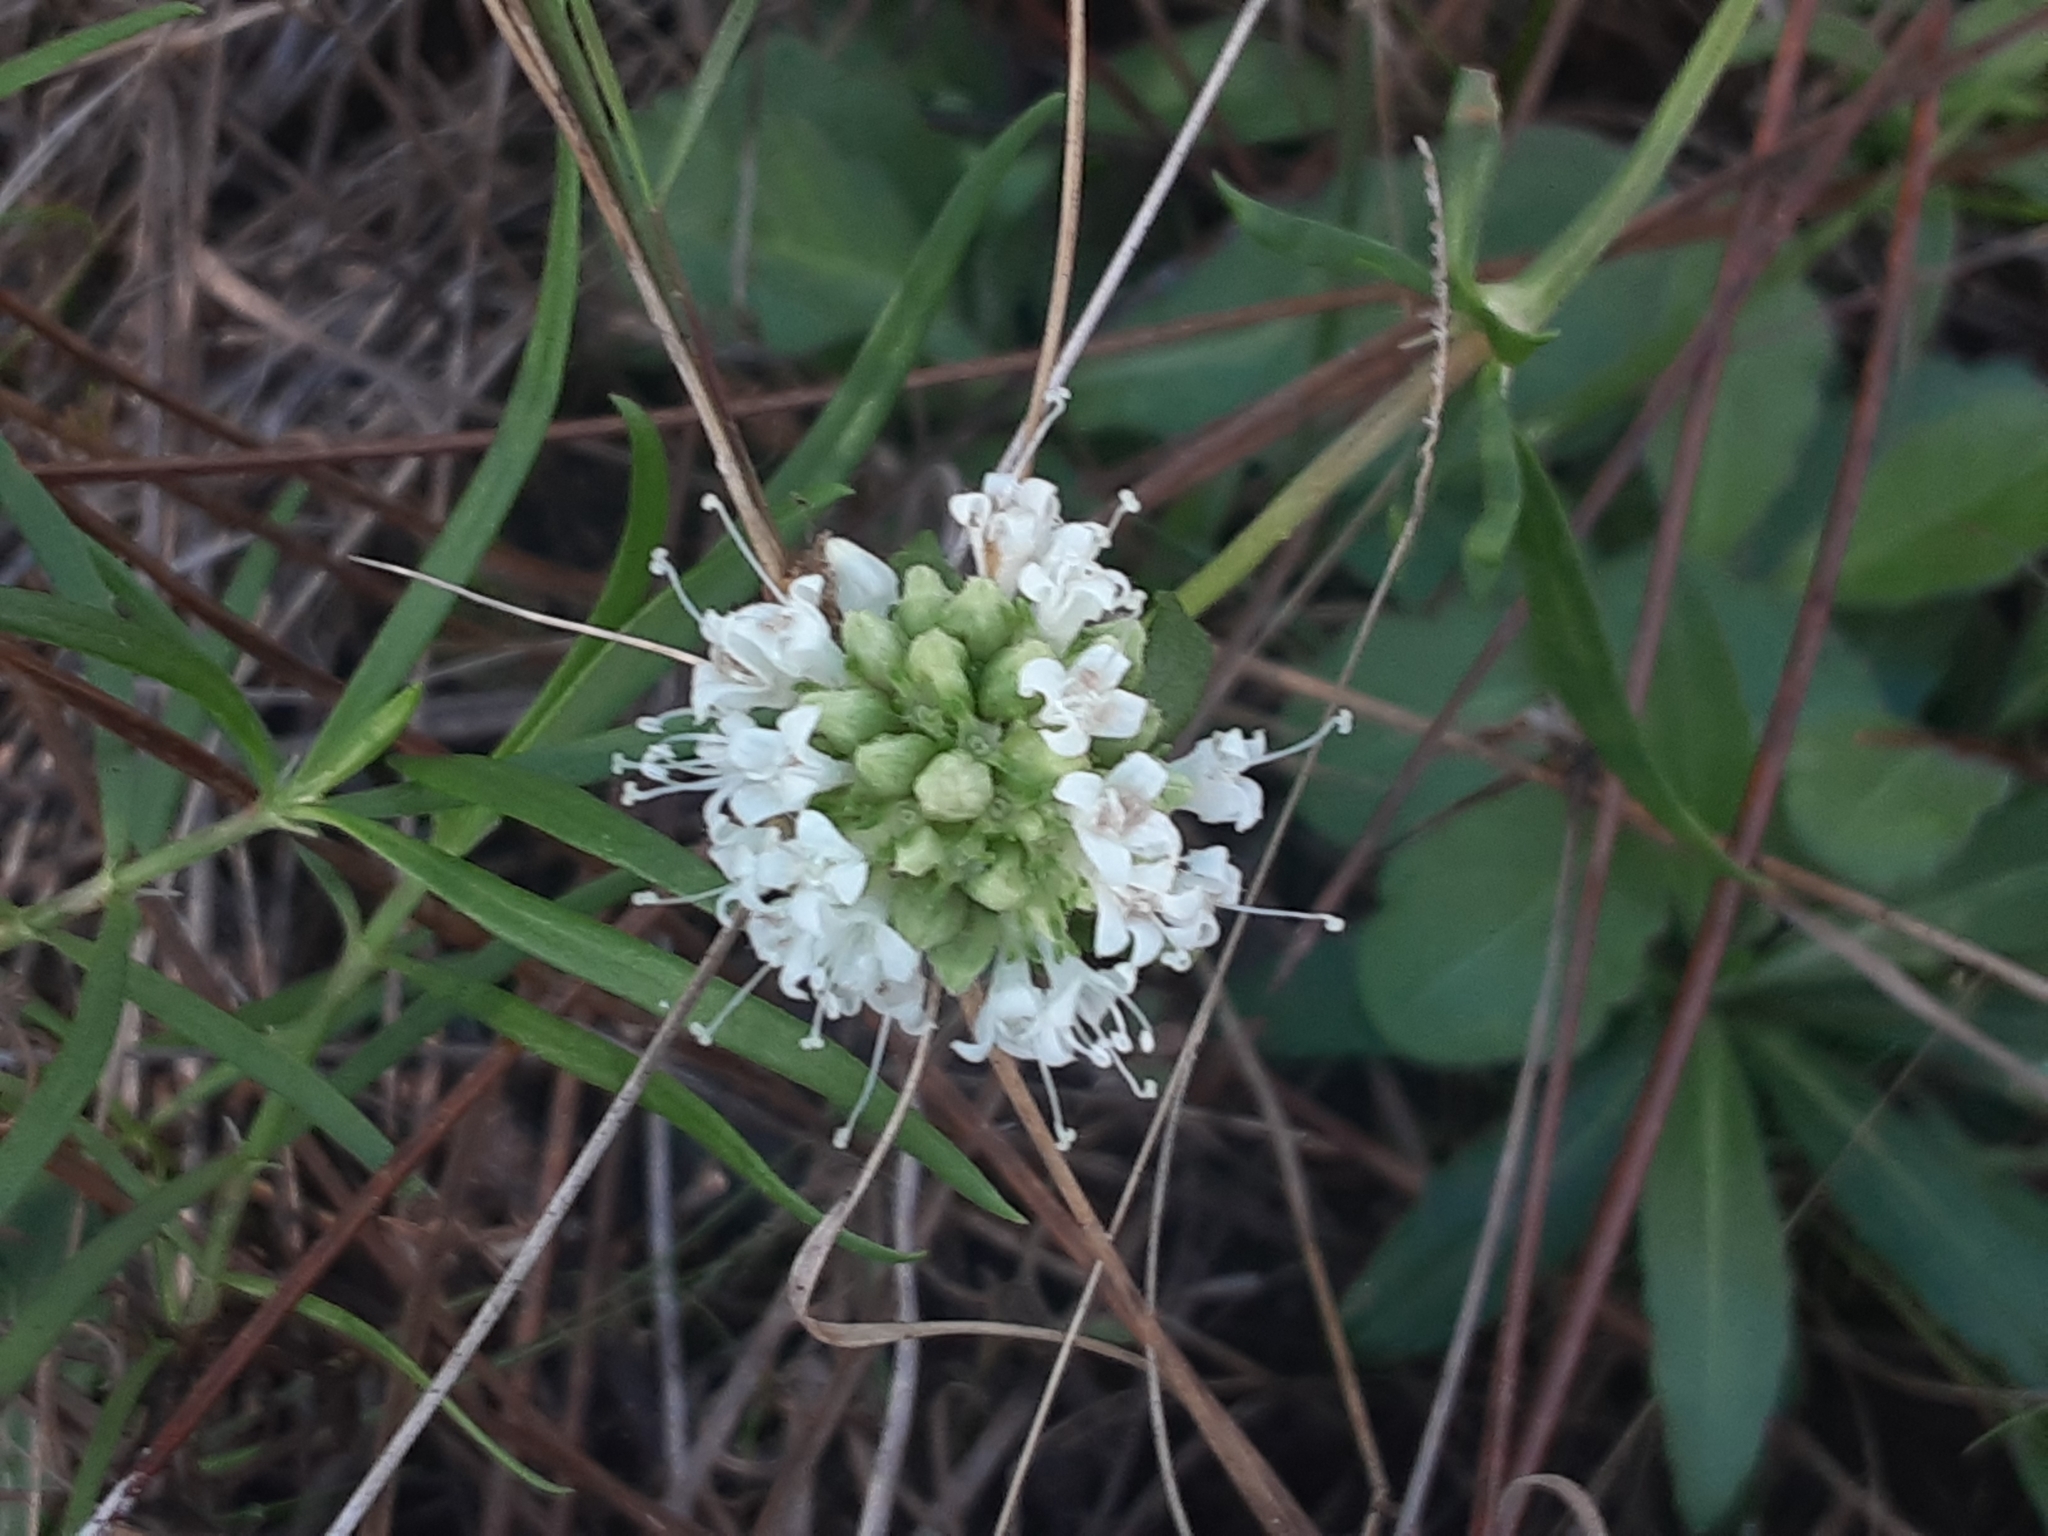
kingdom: Plantae
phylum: Tracheophyta
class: Magnoliopsida
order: Gentianales
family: Rubiaceae
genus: Spermacoce
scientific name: Spermacoce neoterminalis
